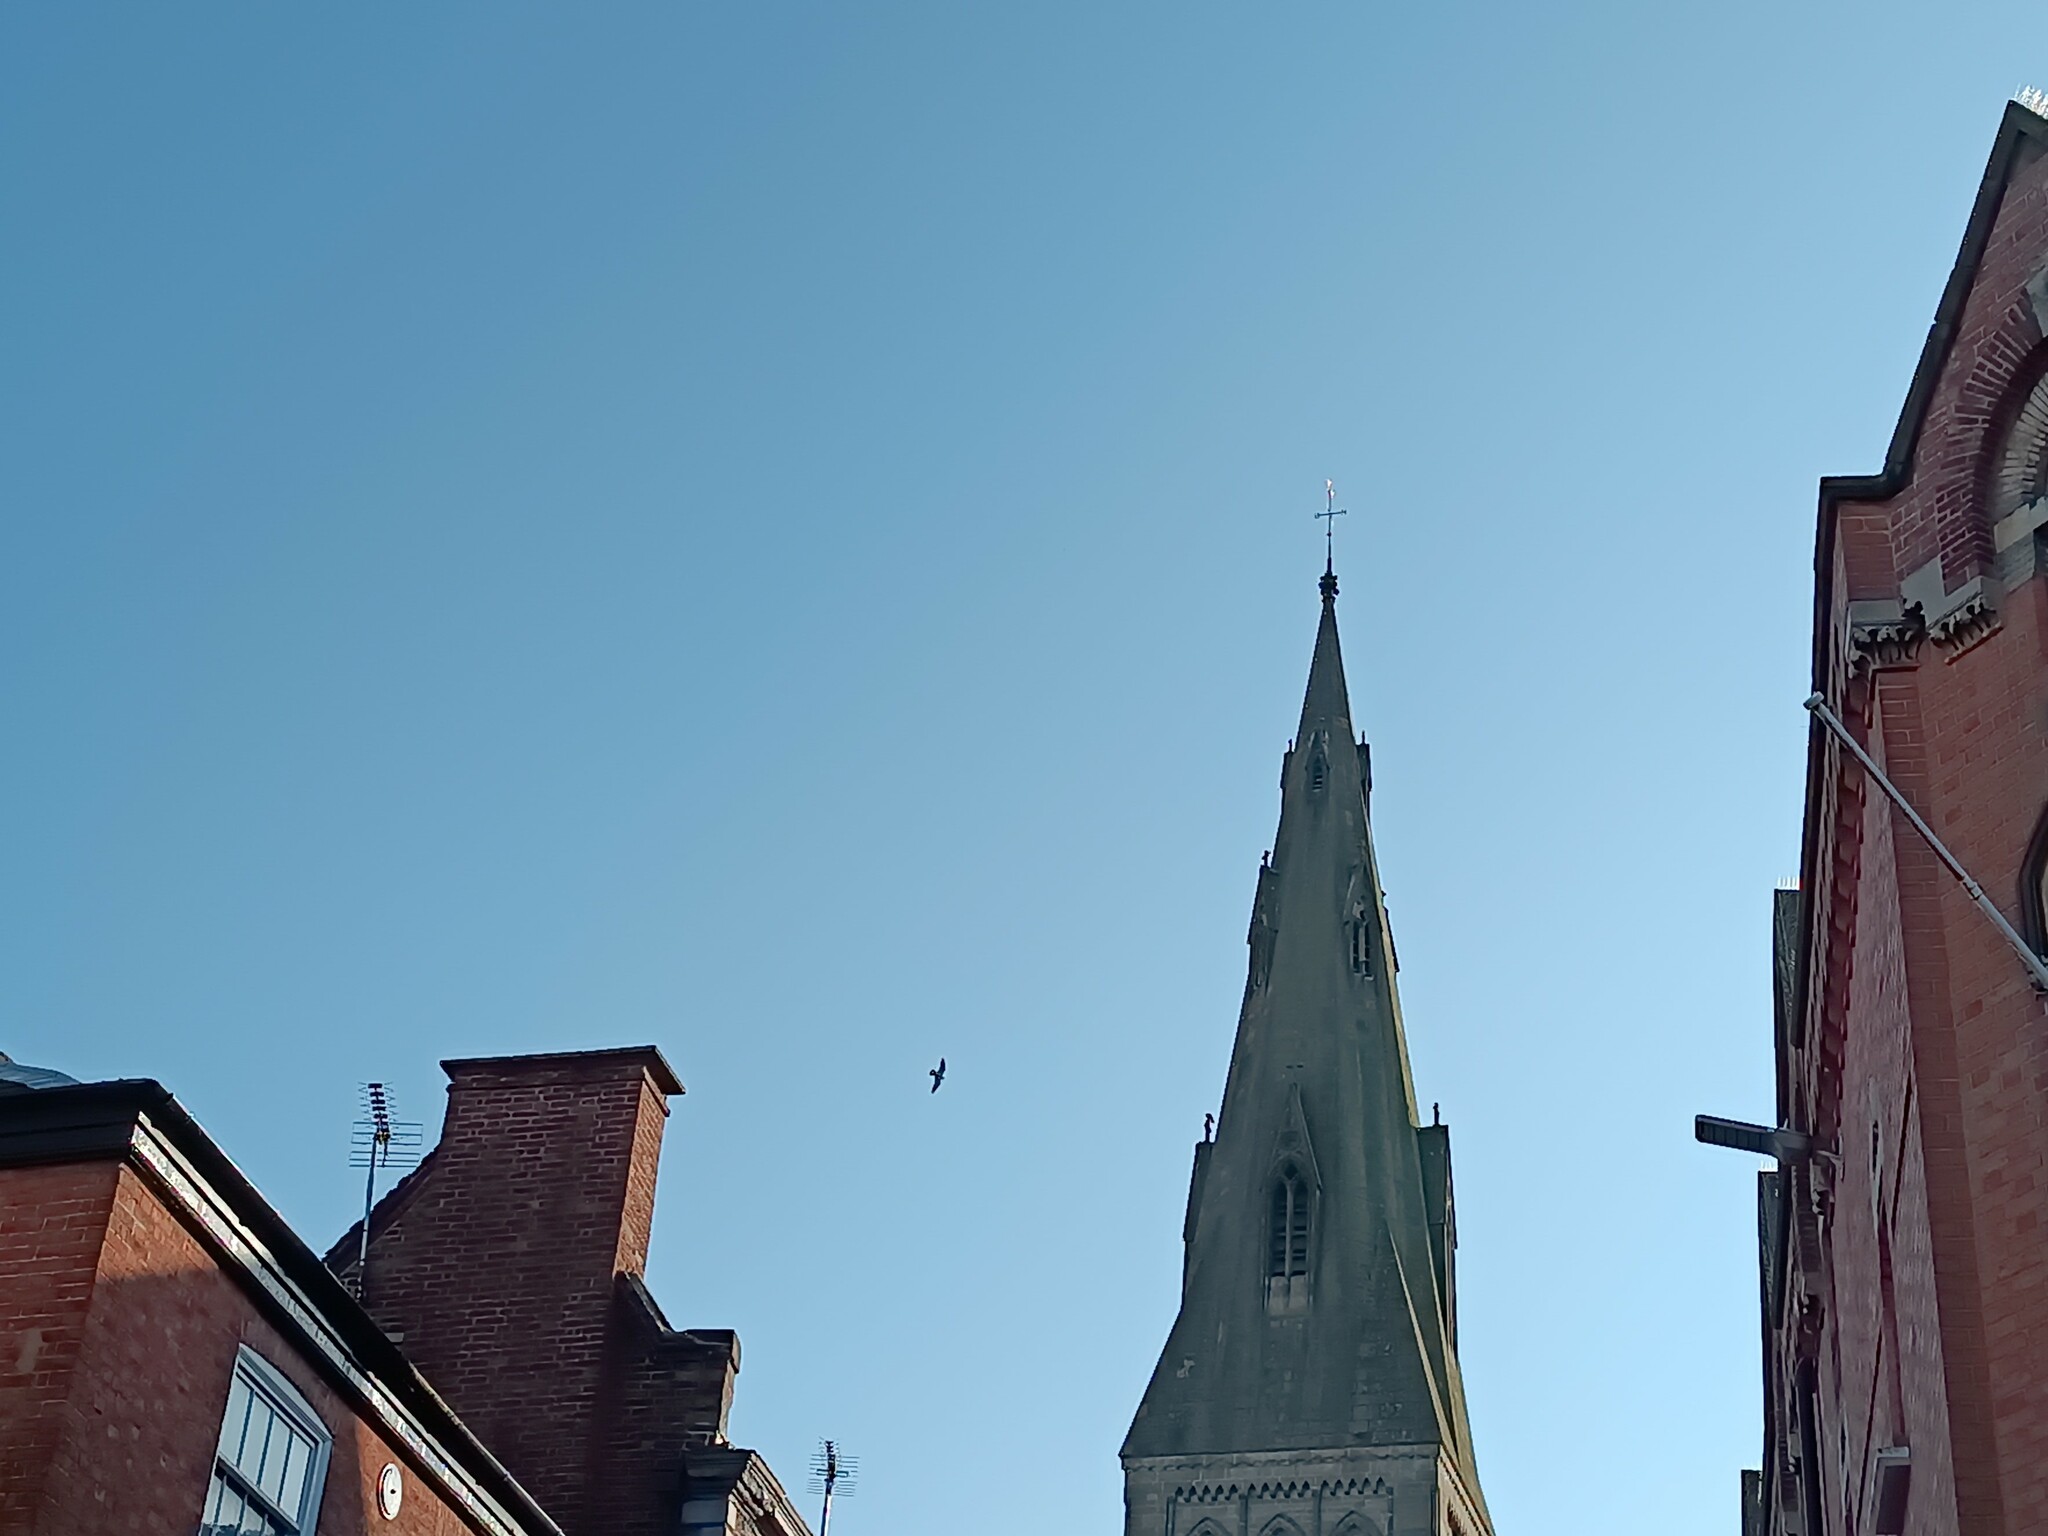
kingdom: Animalia
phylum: Chordata
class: Aves
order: Falconiformes
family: Falconidae
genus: Falco
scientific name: Falco peregrinus
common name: Peregrine falcon
